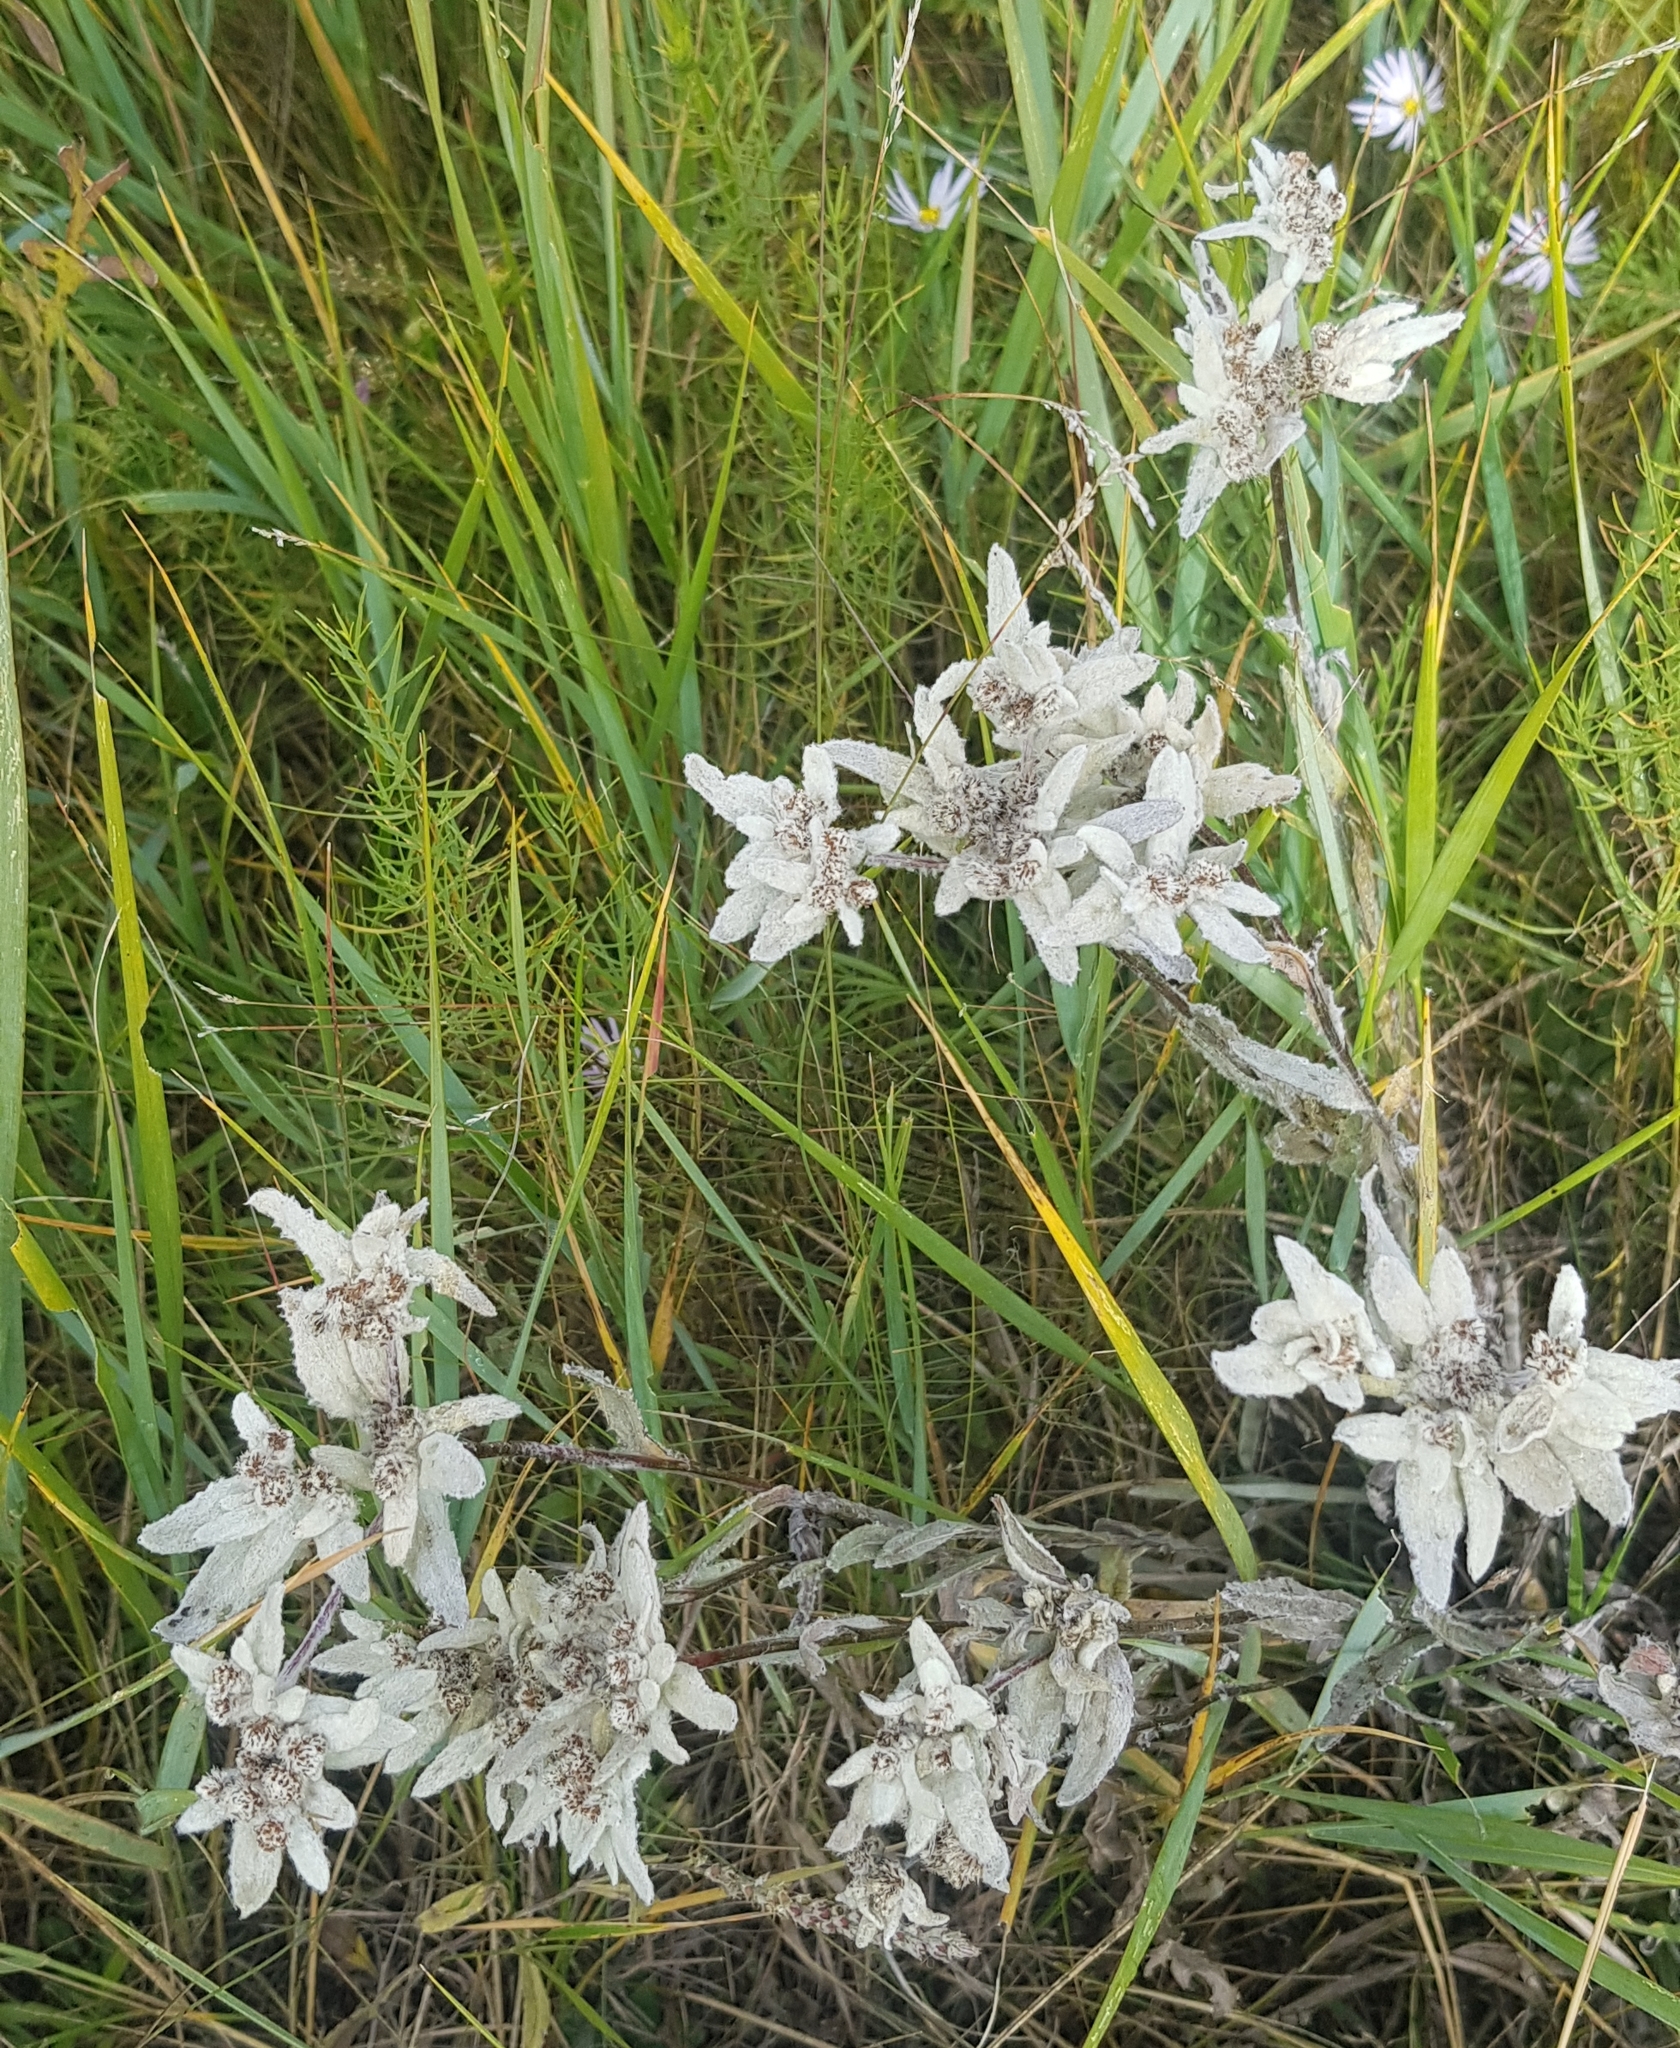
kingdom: Plantae
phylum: Tracheophyta
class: Magnoliopsida
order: Asterales
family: Asteraceae
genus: Leontopodium
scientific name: Leontopodium leontopodinum
